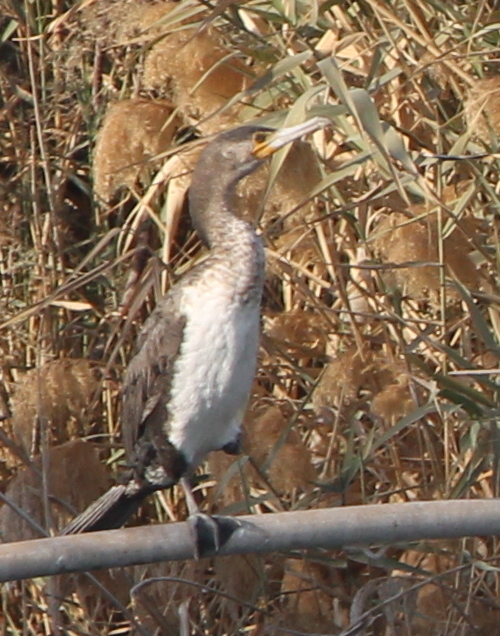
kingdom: Animalia
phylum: Chordata
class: Aves
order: Suliformes
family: Phalacrocoracidae
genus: Phalacrocorax
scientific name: Phalacrocorax carbo
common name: Great cormorant
